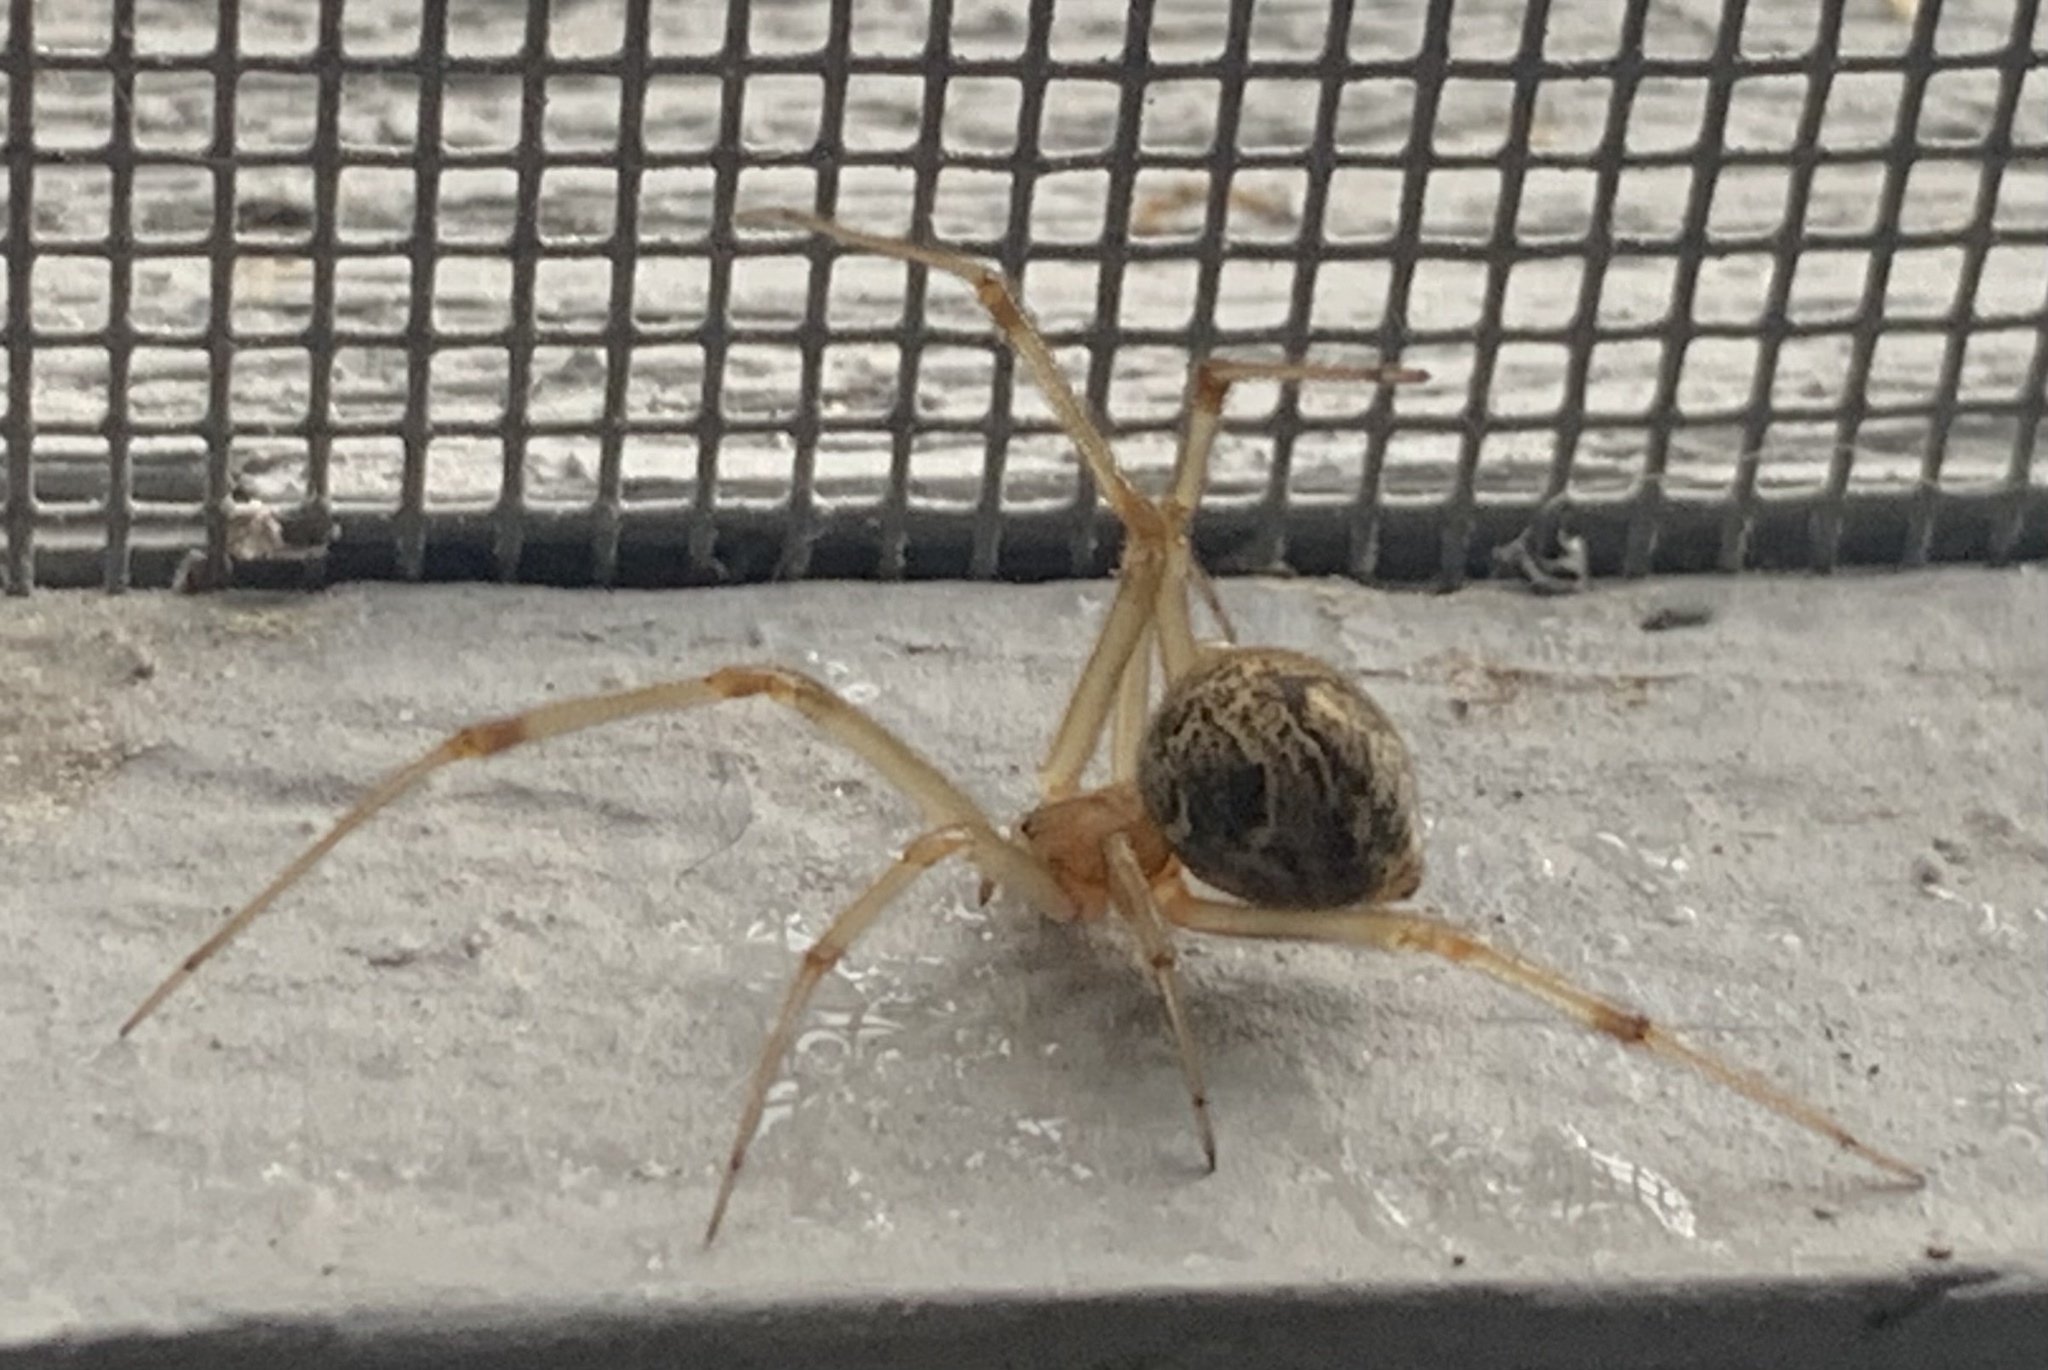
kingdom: Animalia
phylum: Arthropoda
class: Arachnida
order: Araneae
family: Theridiidae
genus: Parasteatoda
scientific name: Parasteatoda tepidariorum
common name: Common house spider
